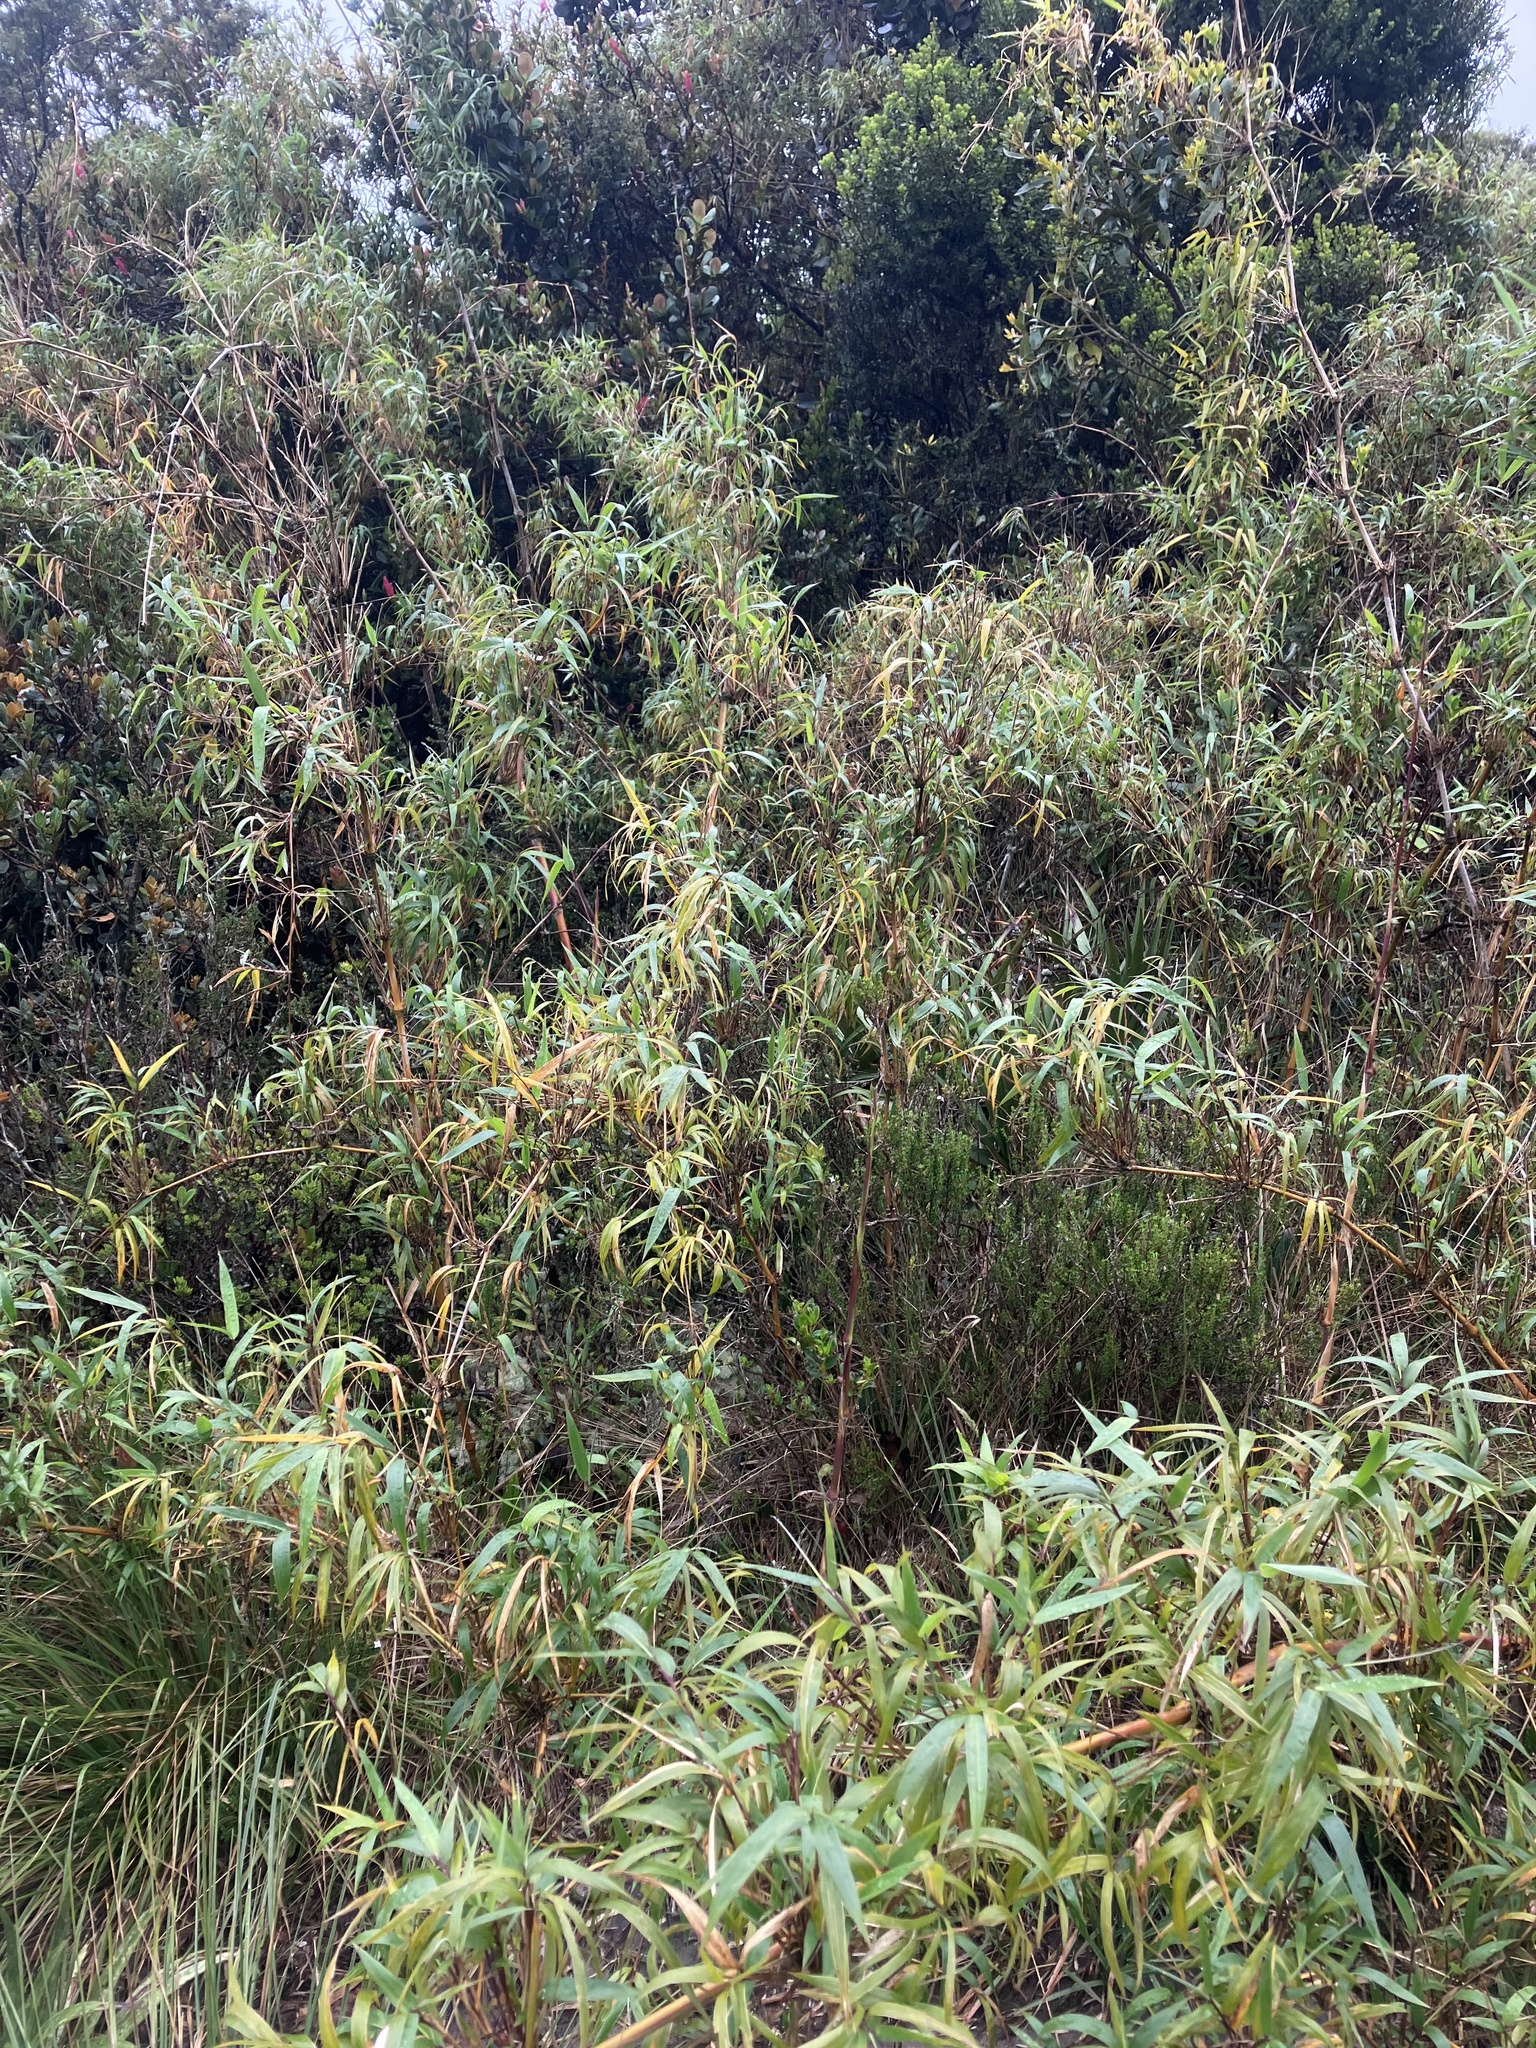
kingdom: Plantae
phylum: Tracheophyta
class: Liliopsida
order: Poales
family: Poaceae
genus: Chusquea
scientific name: Chusquea scandens
